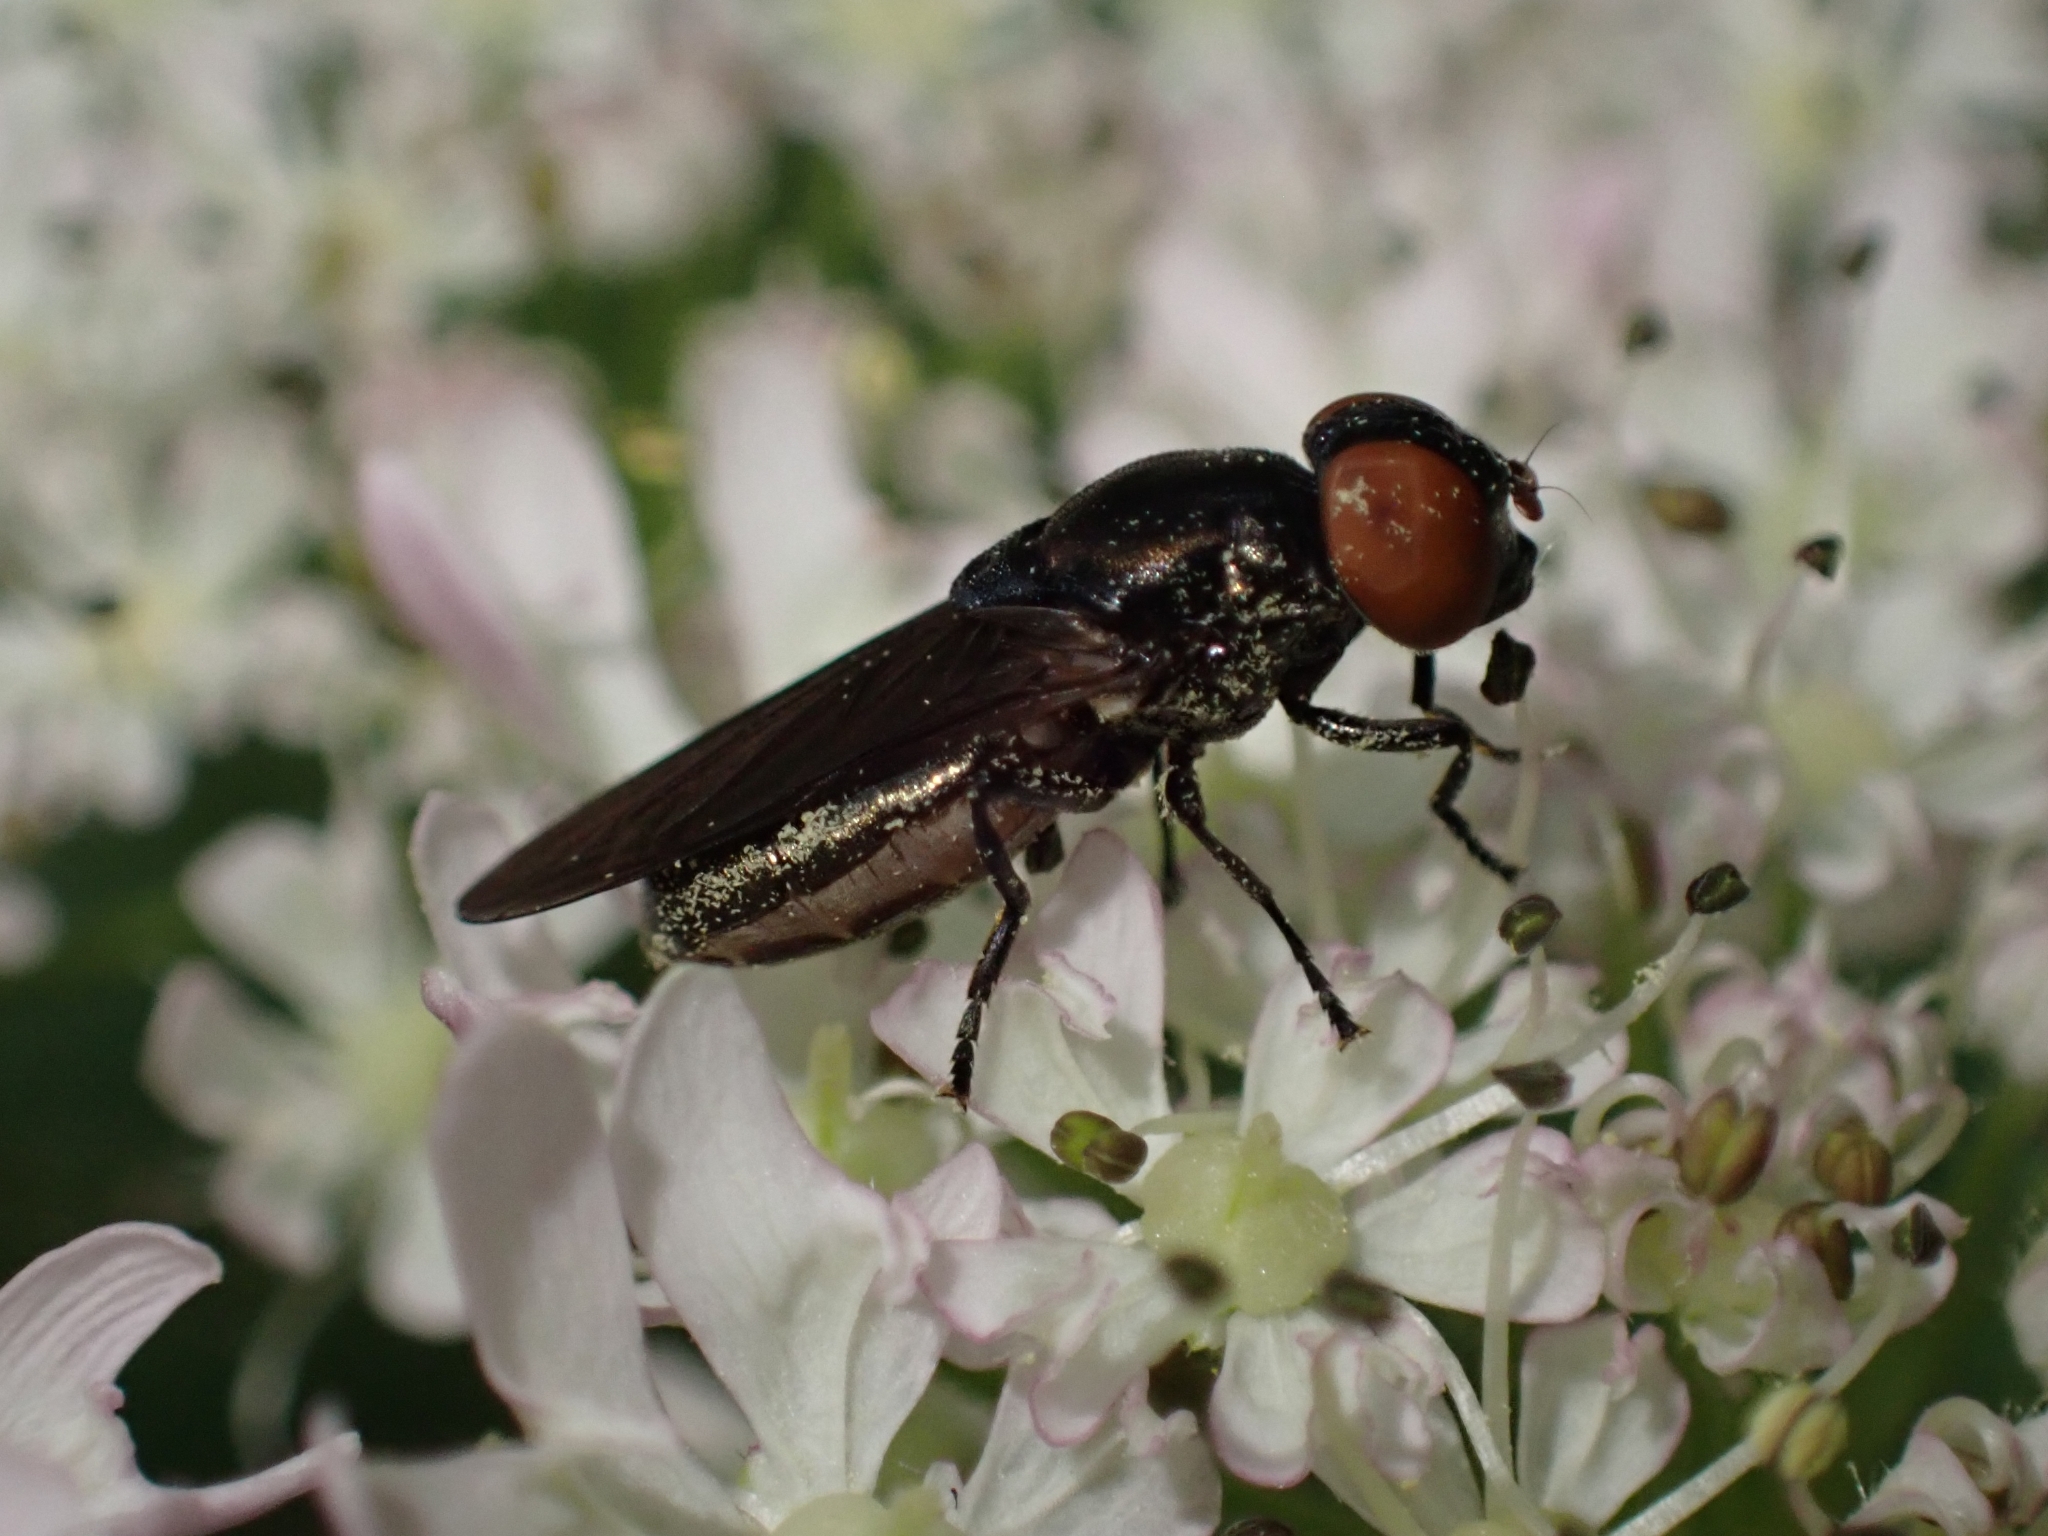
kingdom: Animalia
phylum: Arthropoda
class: Insecta
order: Diptera
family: Syrphidae
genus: Chrysogaster
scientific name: Chrysogaster solstitialis
